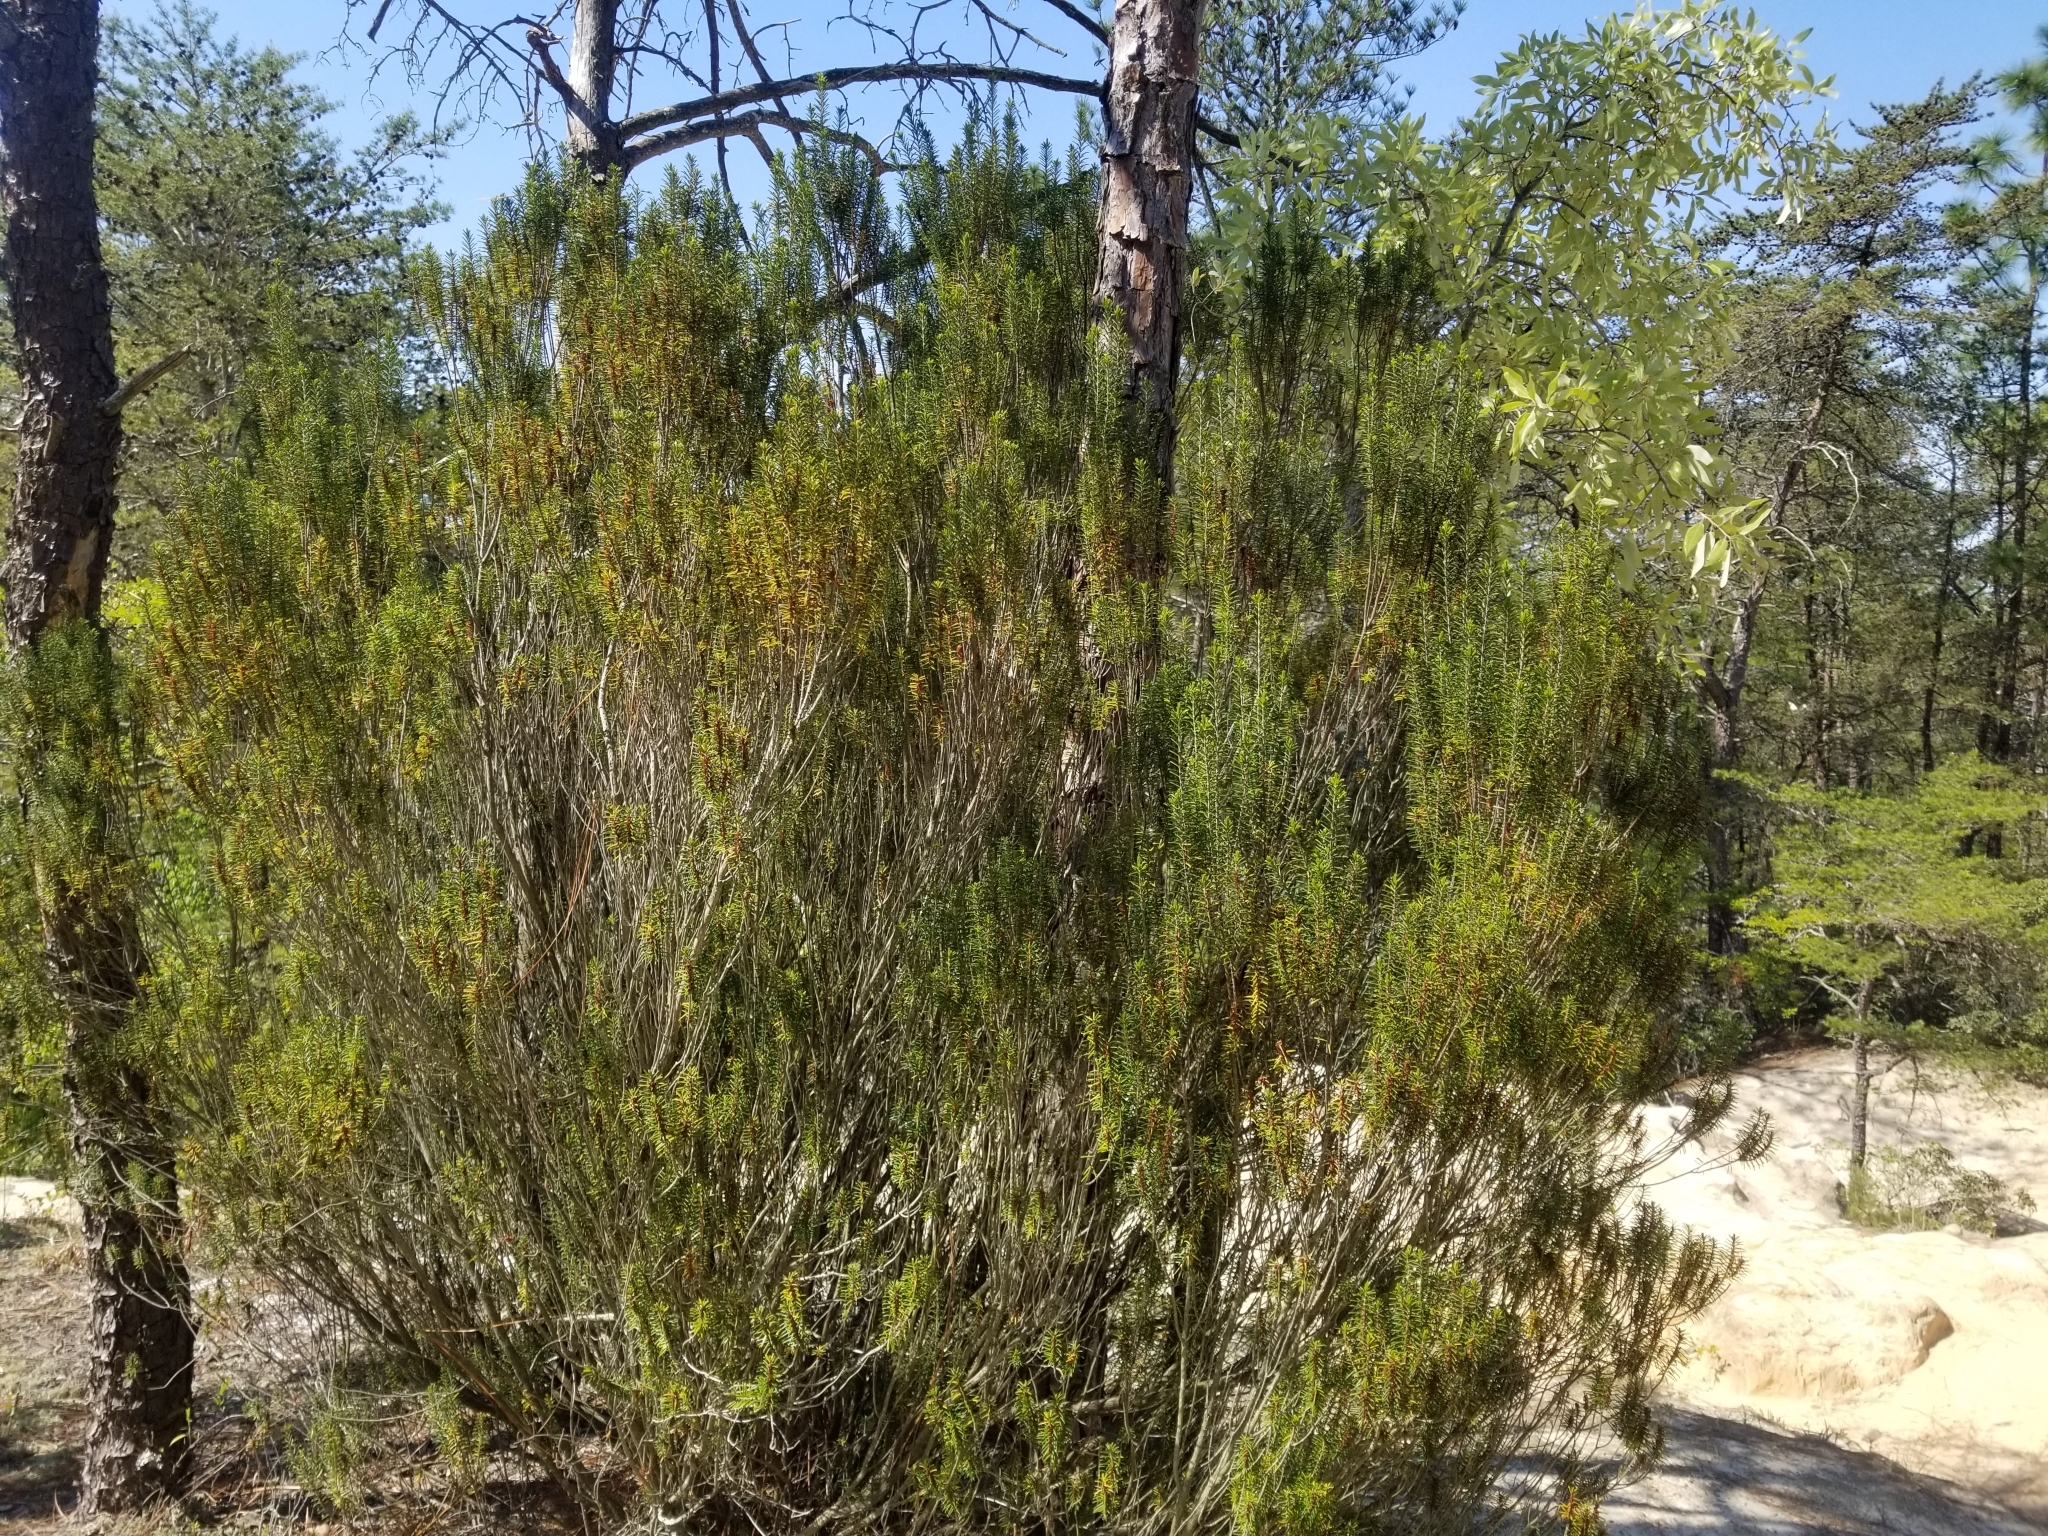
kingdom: Plantae
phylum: Tracheophyta
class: Magnoliopsida
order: Ericales
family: Ericaceae
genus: Ceratiola
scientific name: Ceratiola ericoides
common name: Sandhill-rosemary
